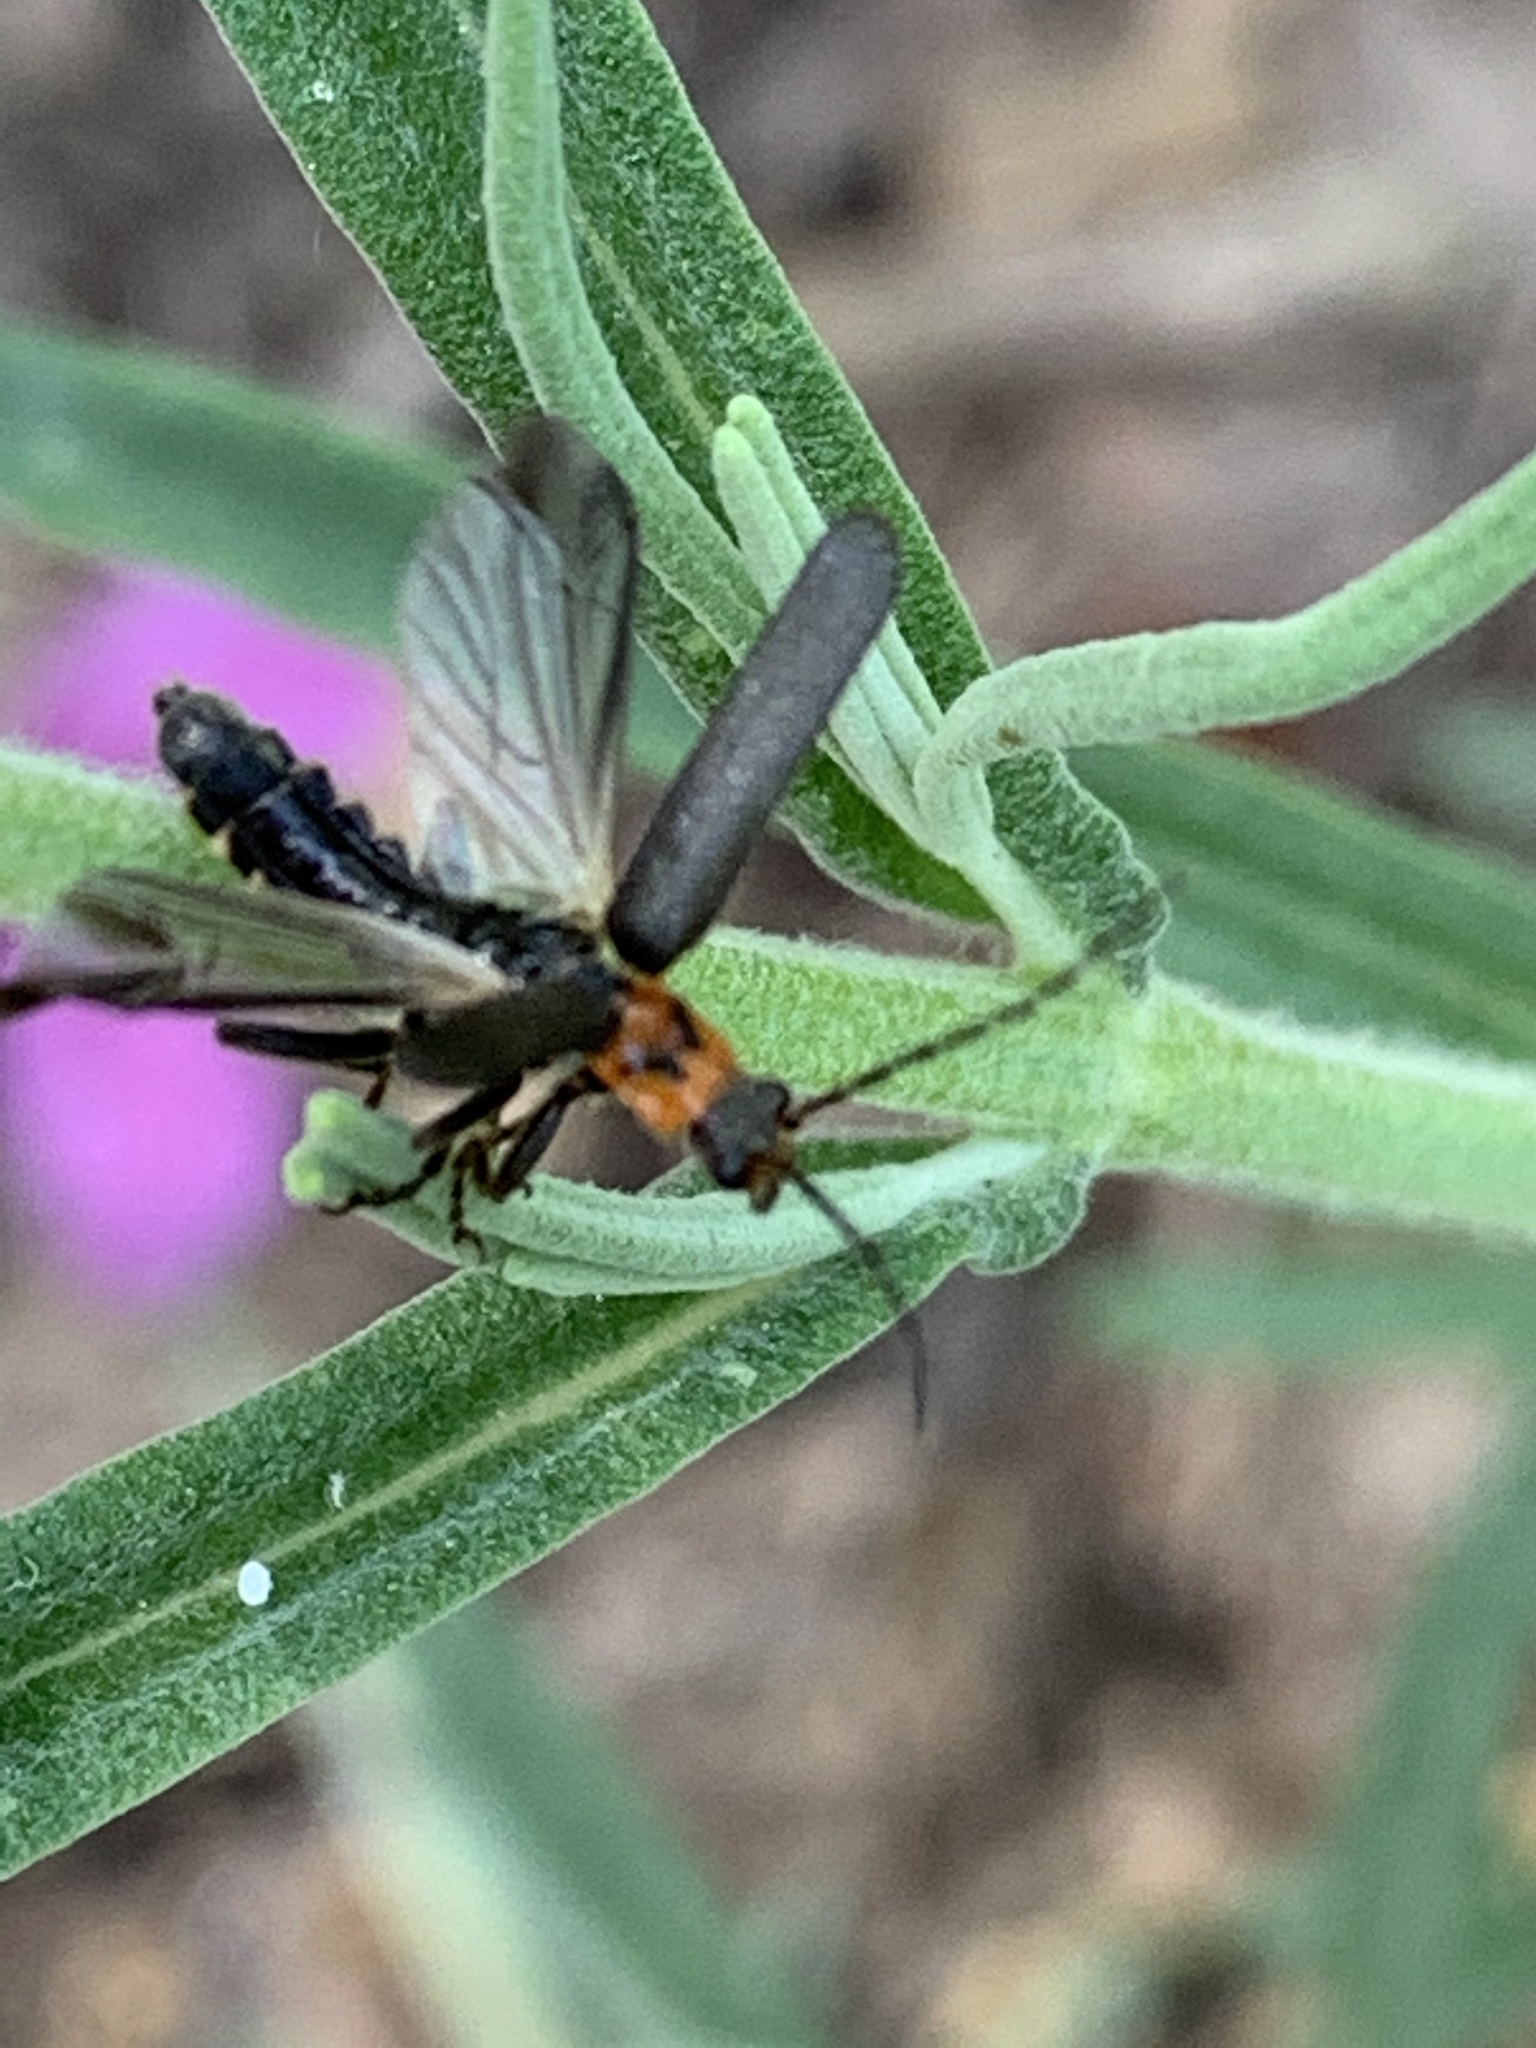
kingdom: Animalia
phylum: Arthropoda
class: Insecta
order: Coleoptera
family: Cantharidae
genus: Cyrtomoptera
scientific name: Cyrtomoptera divisa
